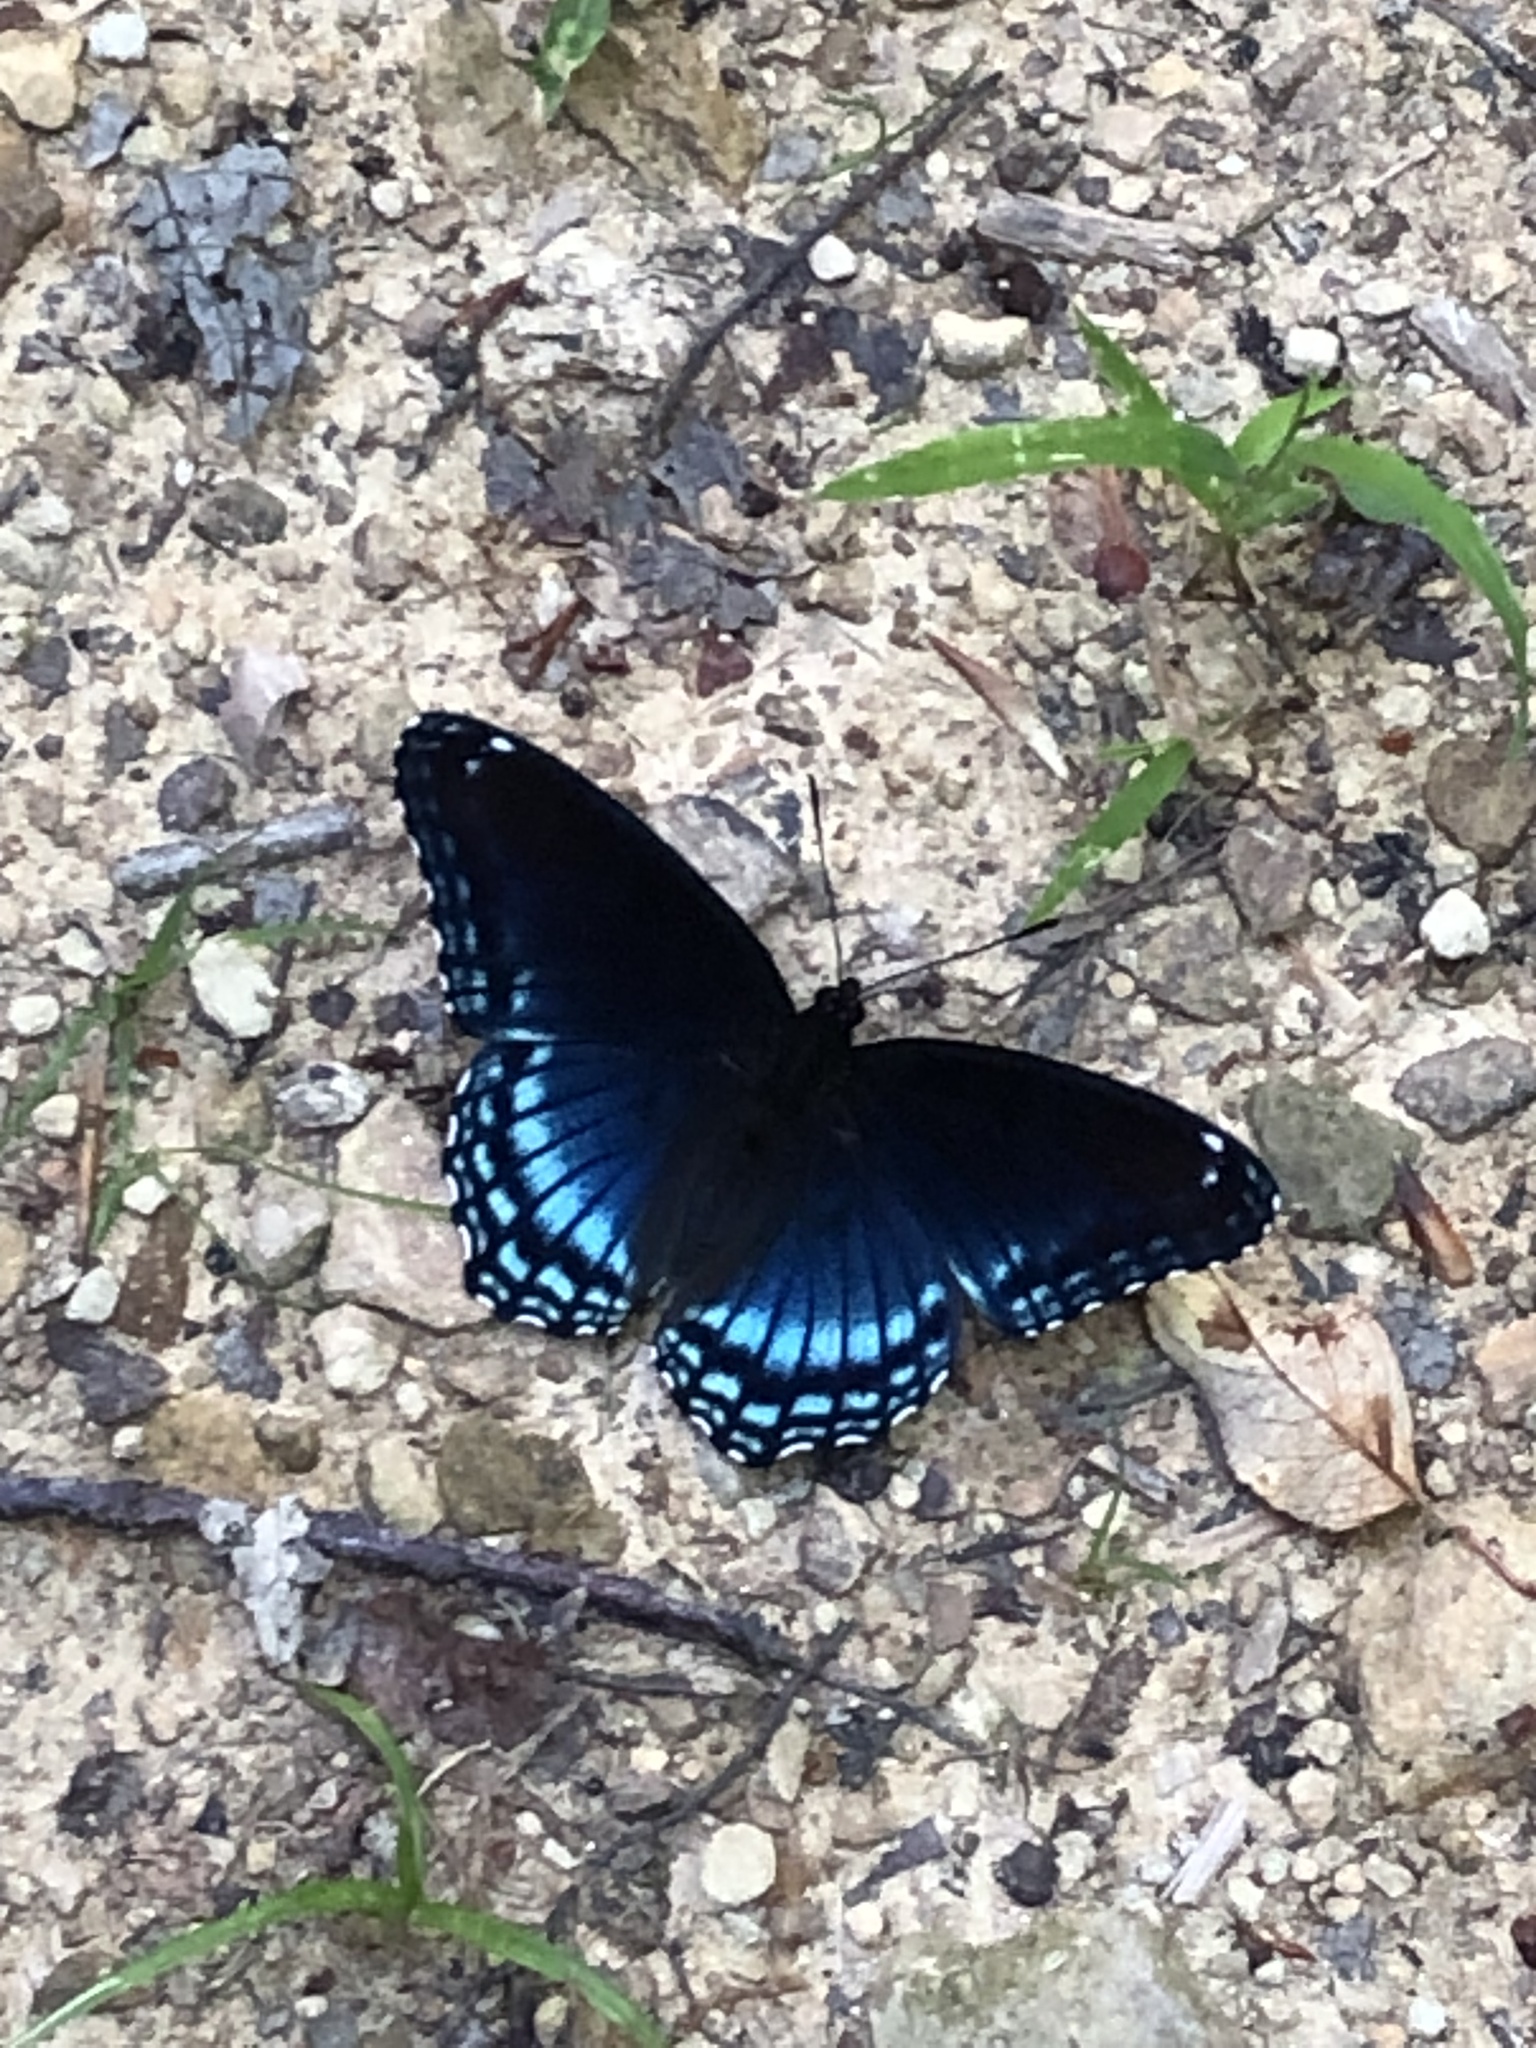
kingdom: Animalia
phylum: Arthropoda
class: Insecta
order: Lepidoptera
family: Nymphalidae
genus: Limenitis
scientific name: Limenitis astyanax
